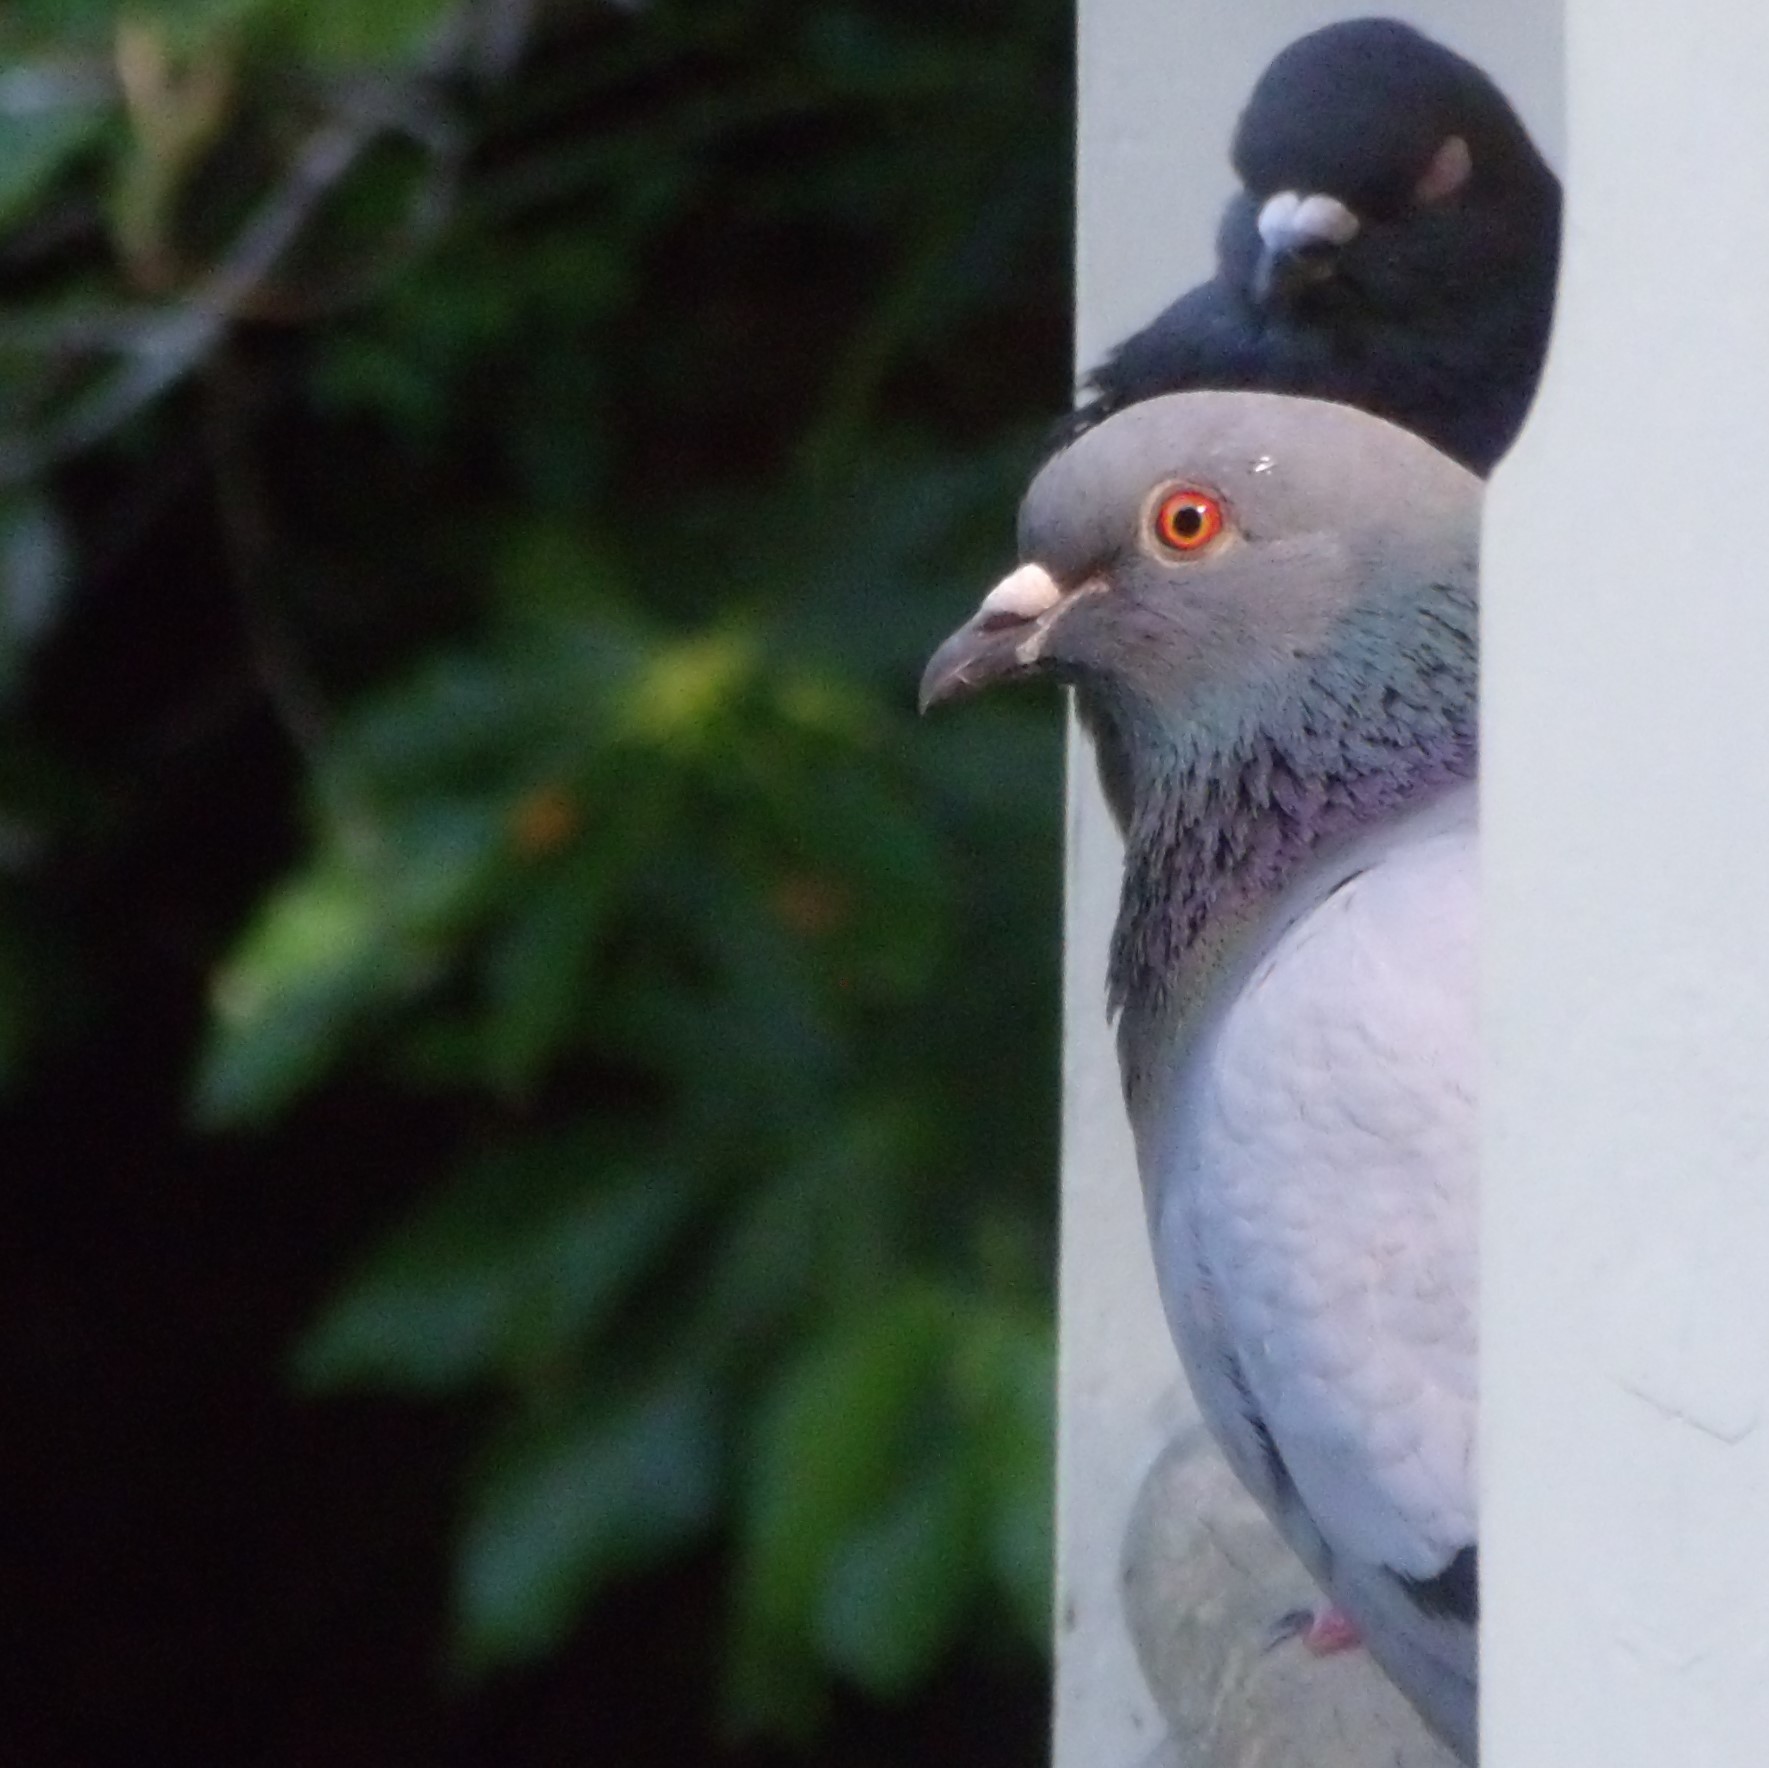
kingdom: Animalia
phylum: Chordata
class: Aves
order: Columbiformes
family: Columbidae
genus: Columba
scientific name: Columba livia
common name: Rock pigeon
